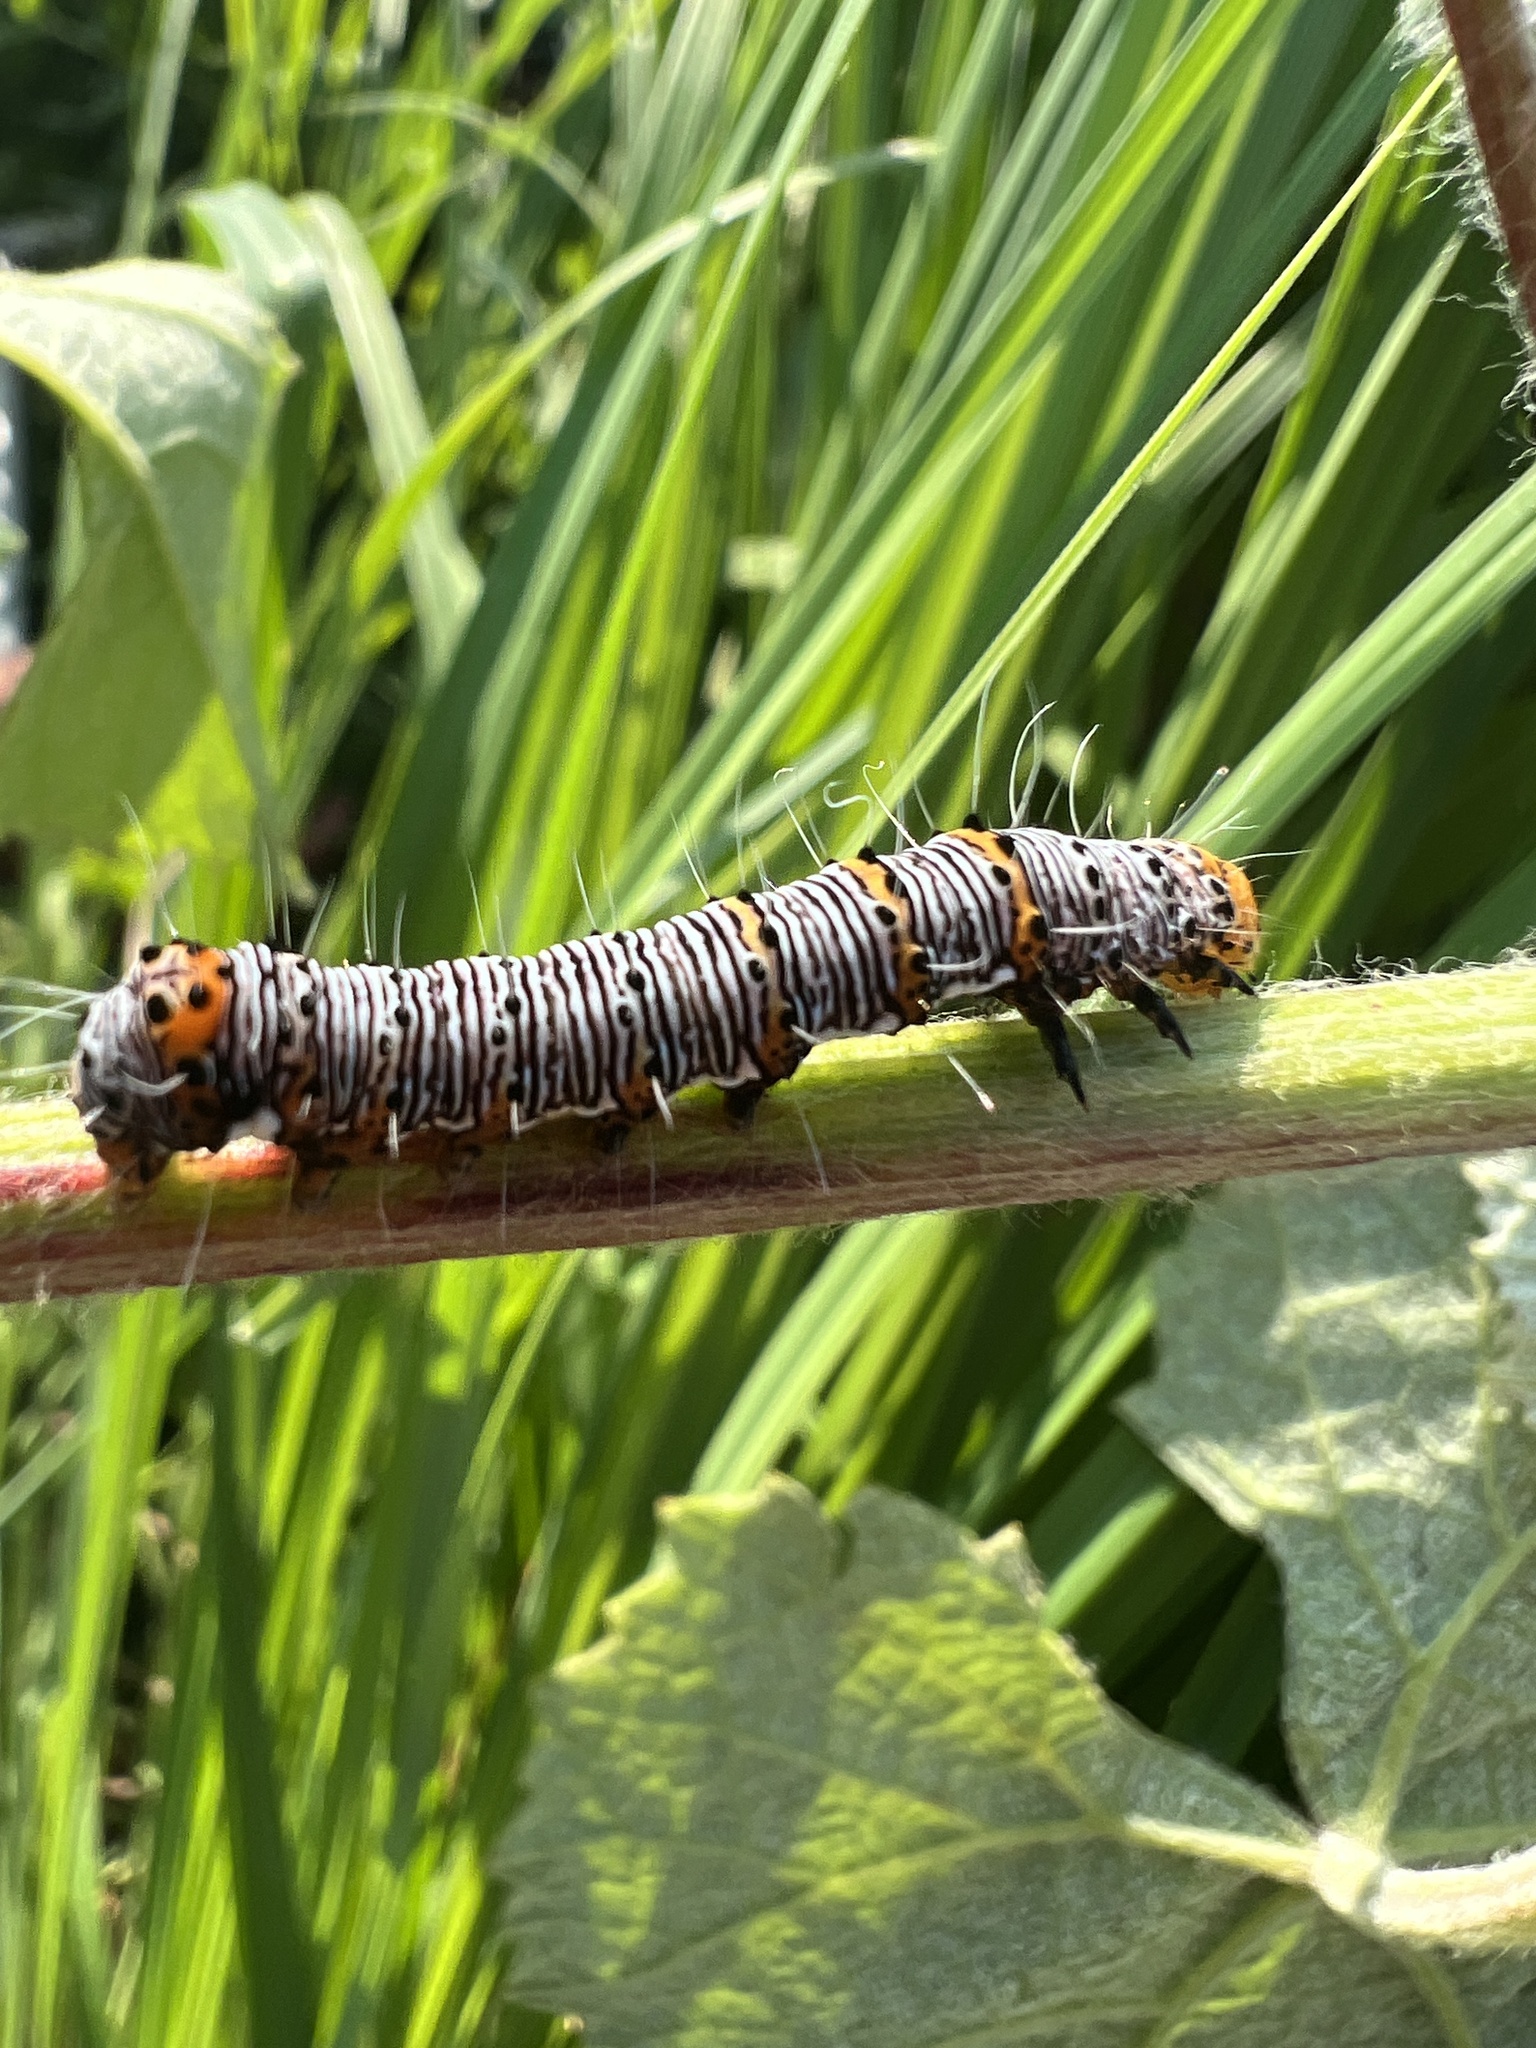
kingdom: Animalia
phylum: Arthropoda
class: Insecta
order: Lepidoptera
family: Noctuidae
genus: Alypia
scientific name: Alypia octomaculata
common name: Eight-spotted forester
